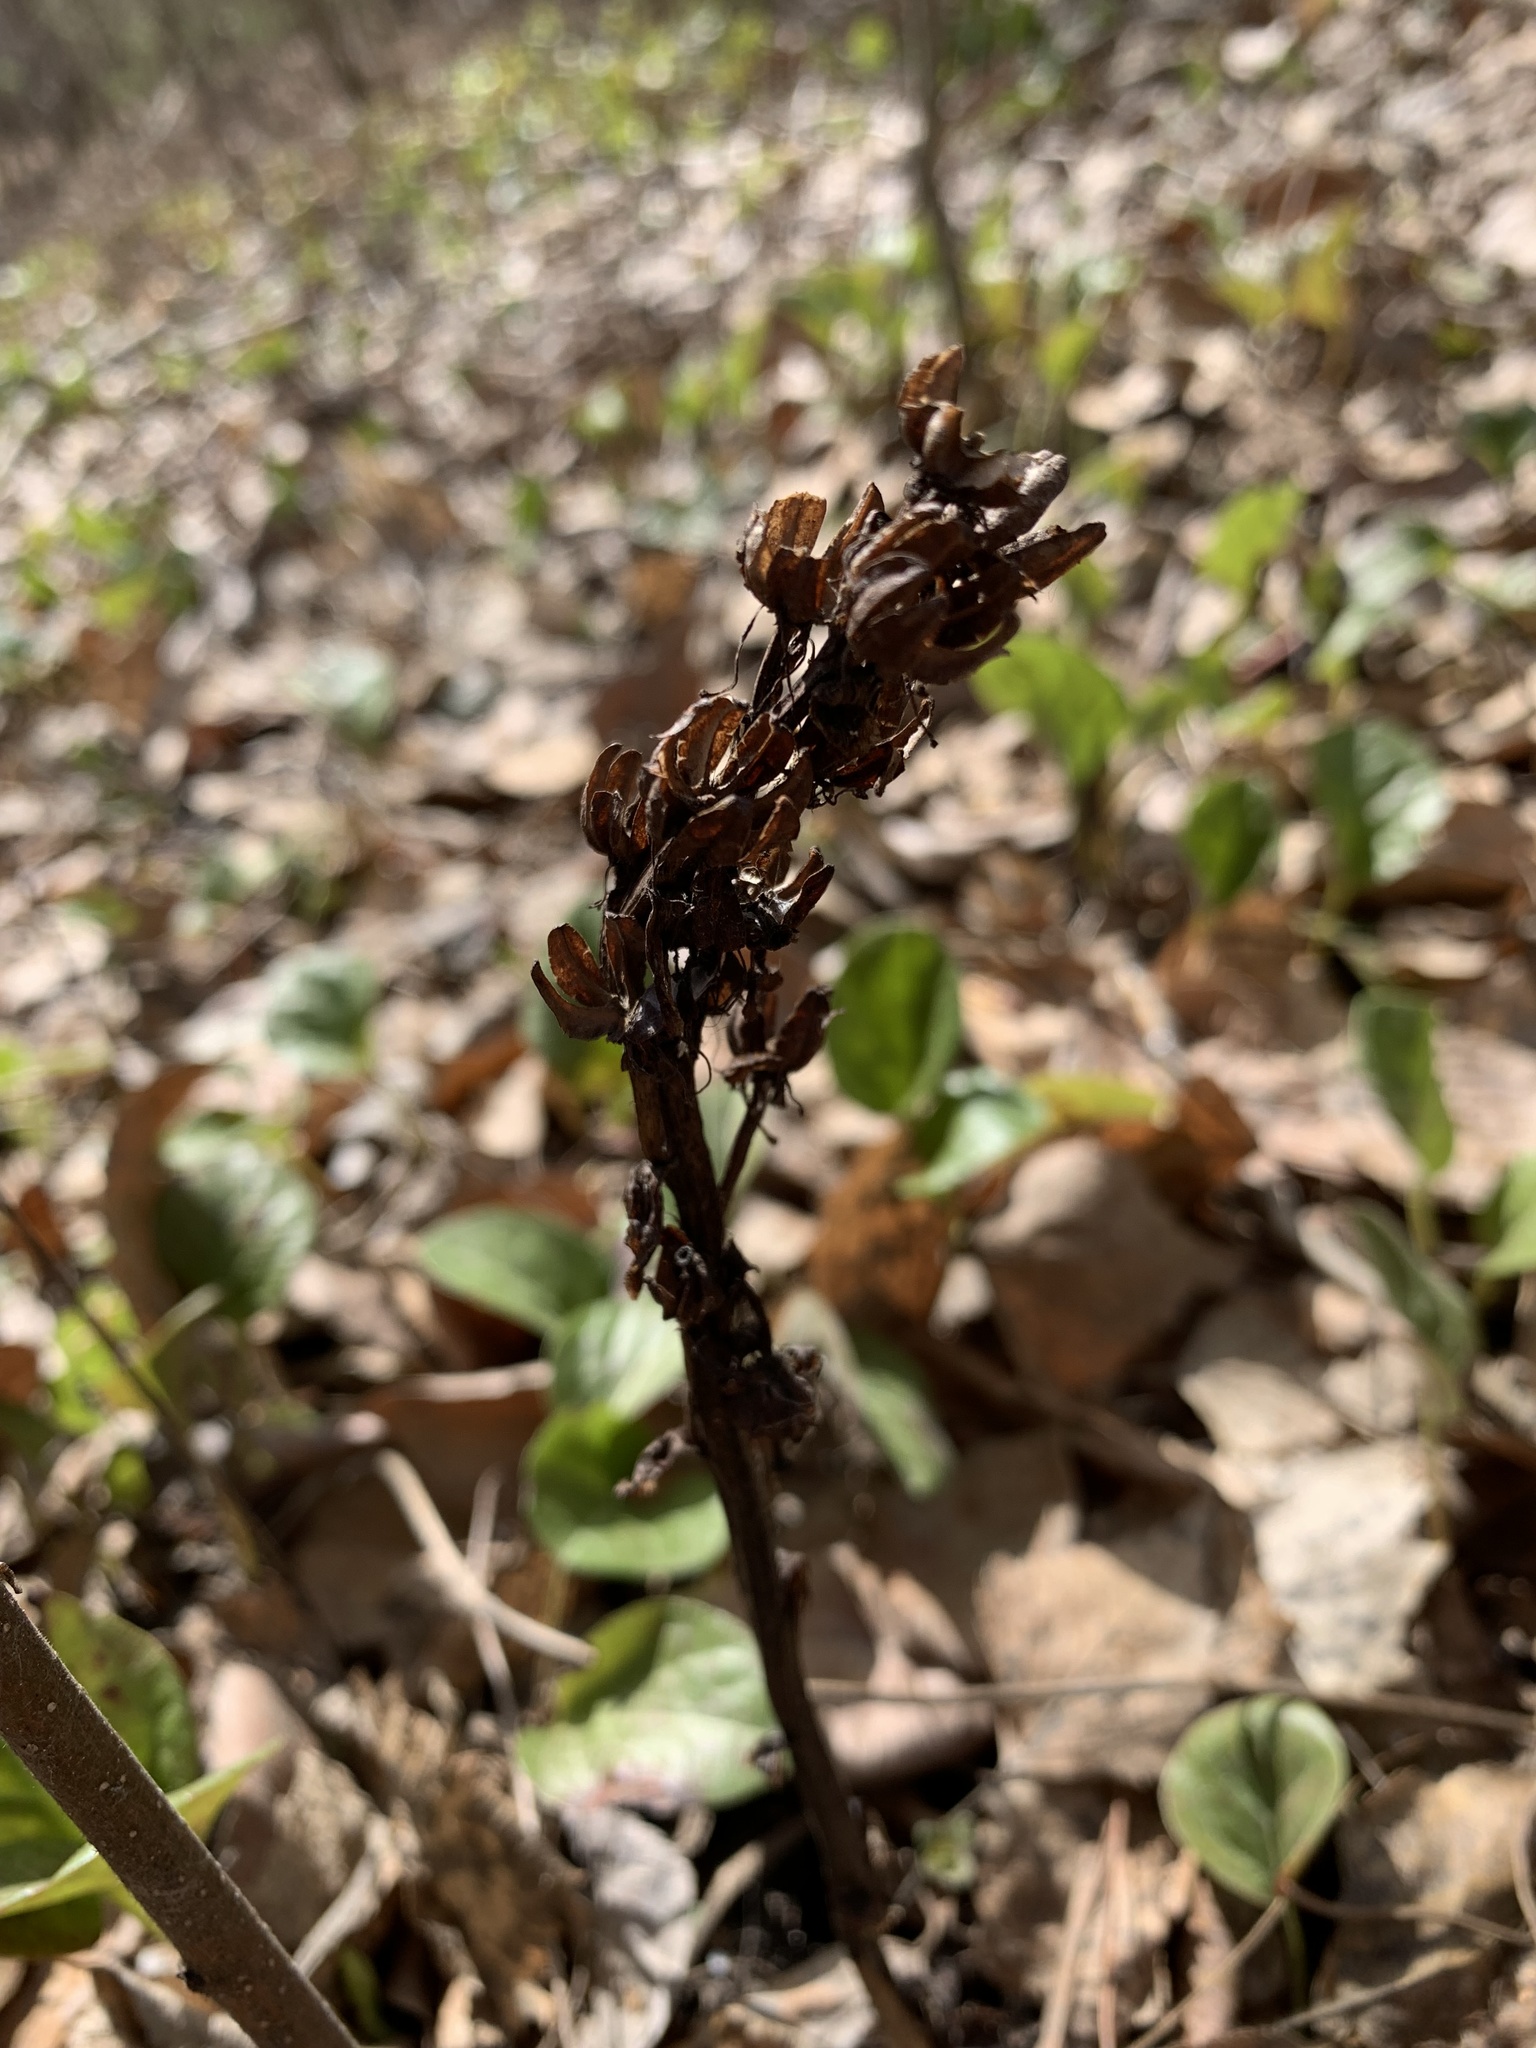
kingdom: Plantae
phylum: Tracheophyta
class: Magnoliopsida
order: Ericales
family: Ericaceae
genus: Hypopitys
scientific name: Hypopitys monotropa
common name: Yellow bird's-nest
